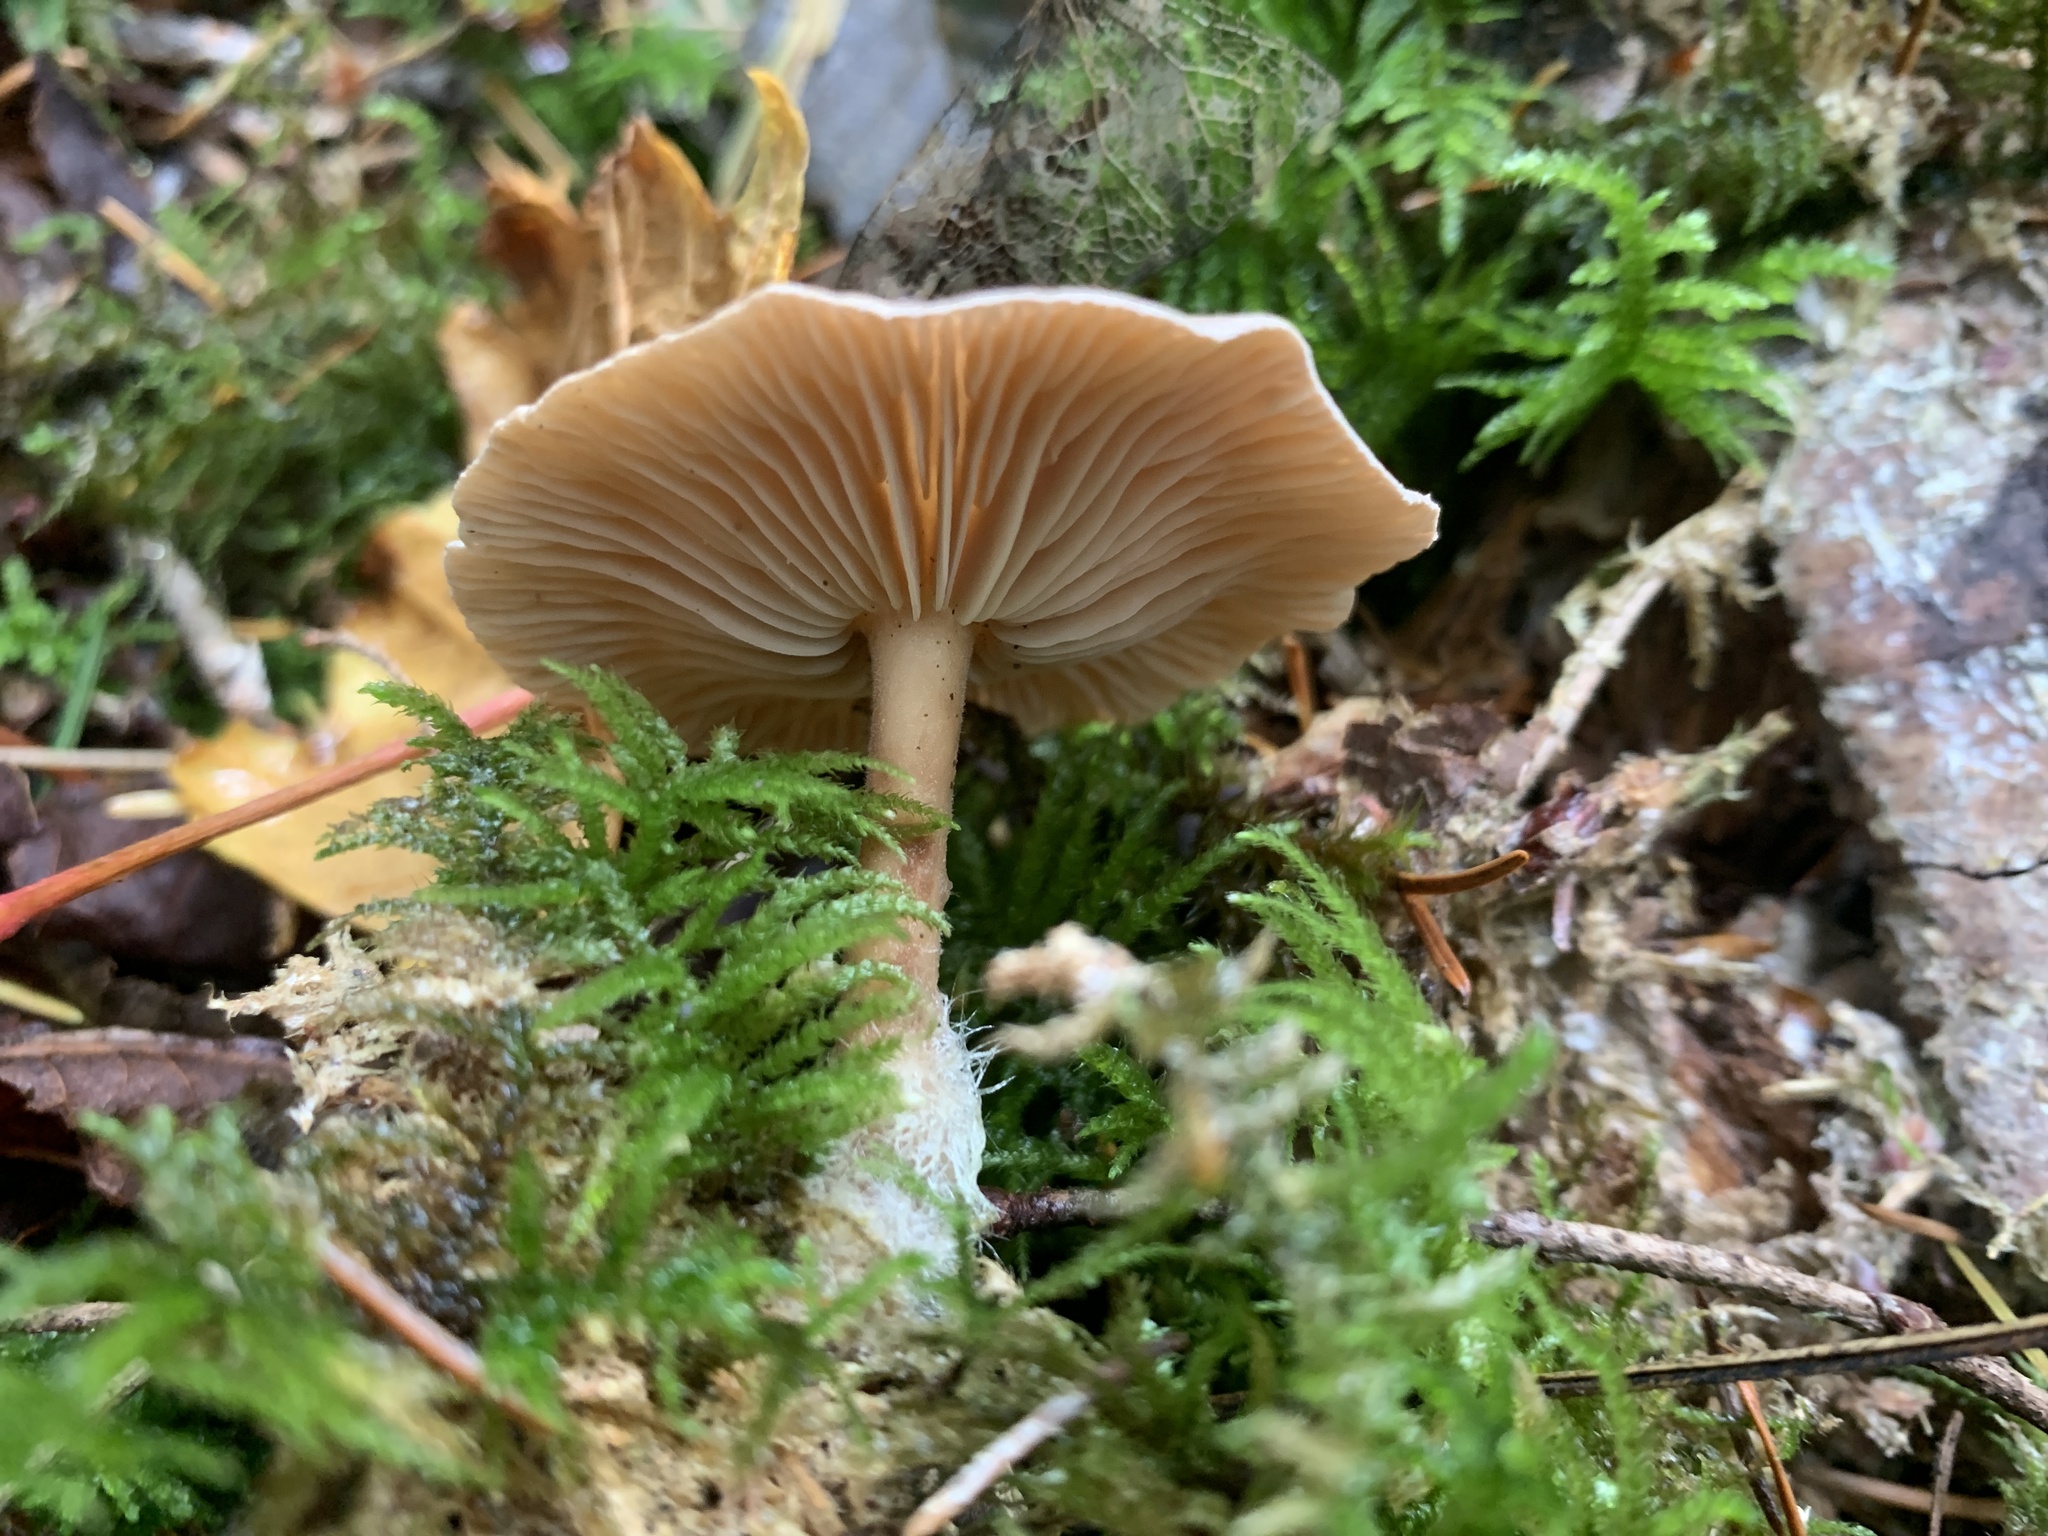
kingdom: Fungi
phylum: Basidiomycota
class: Agaricomycetes
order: Agaricales
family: Omphalotaceae
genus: Collybiopsis
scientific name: Collybiopsis peronata
